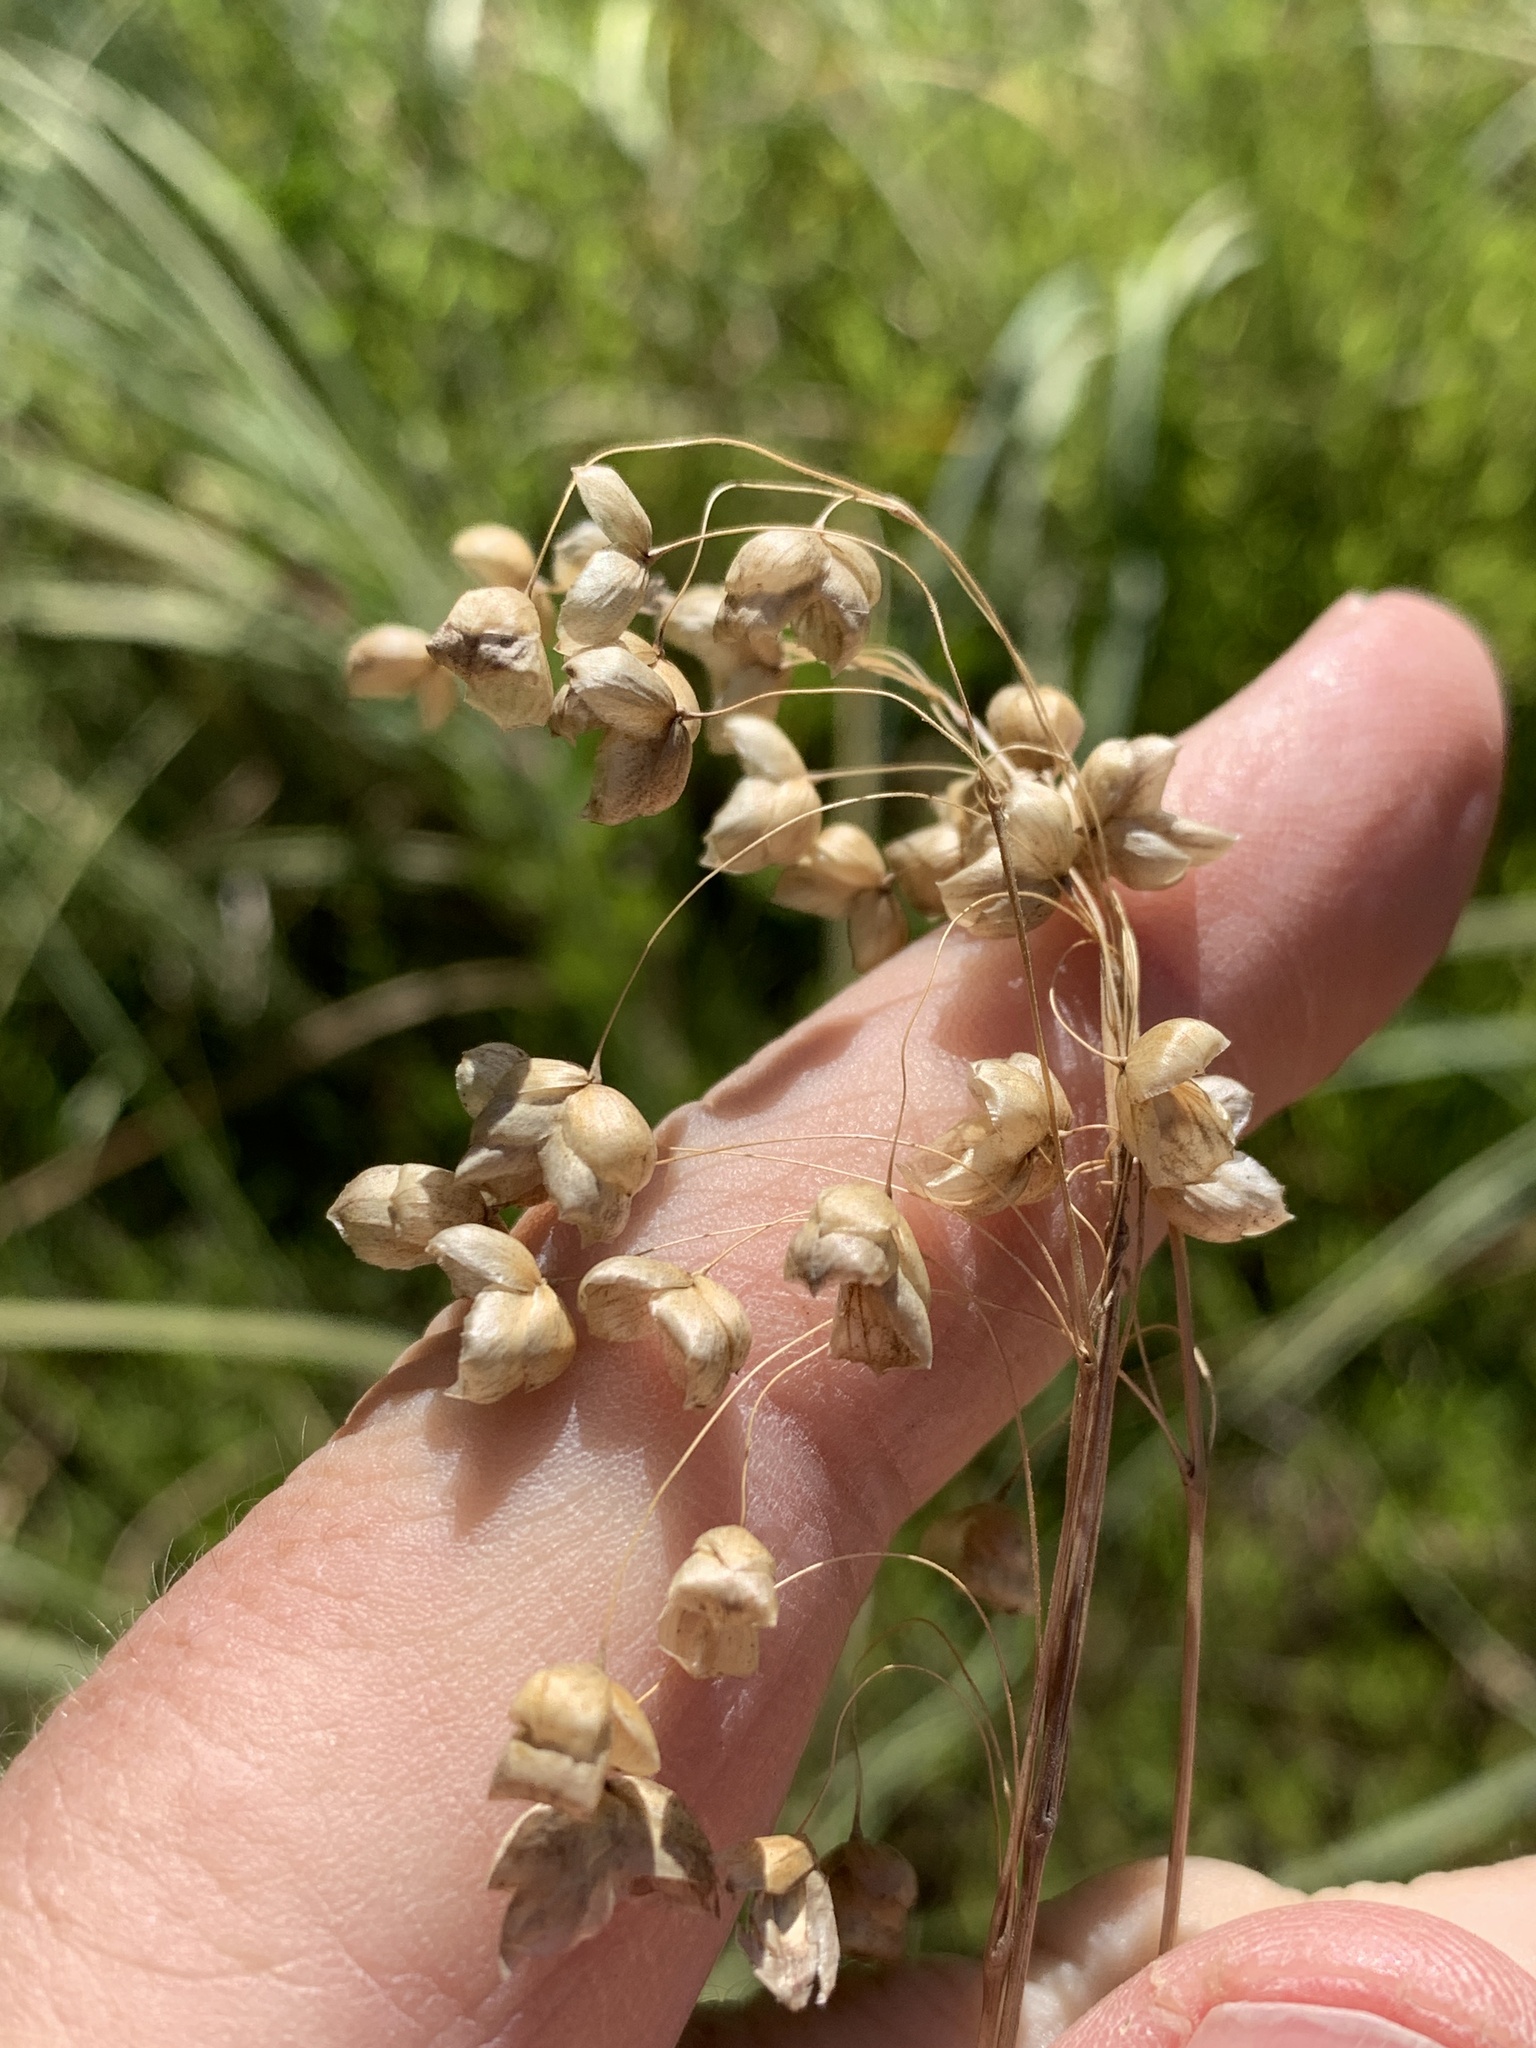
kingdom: Plantae
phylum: Tracheophyta
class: Liliopsida
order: Poales
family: Poaceae
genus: Briza
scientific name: Briza maxima
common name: Big quakinggrass
